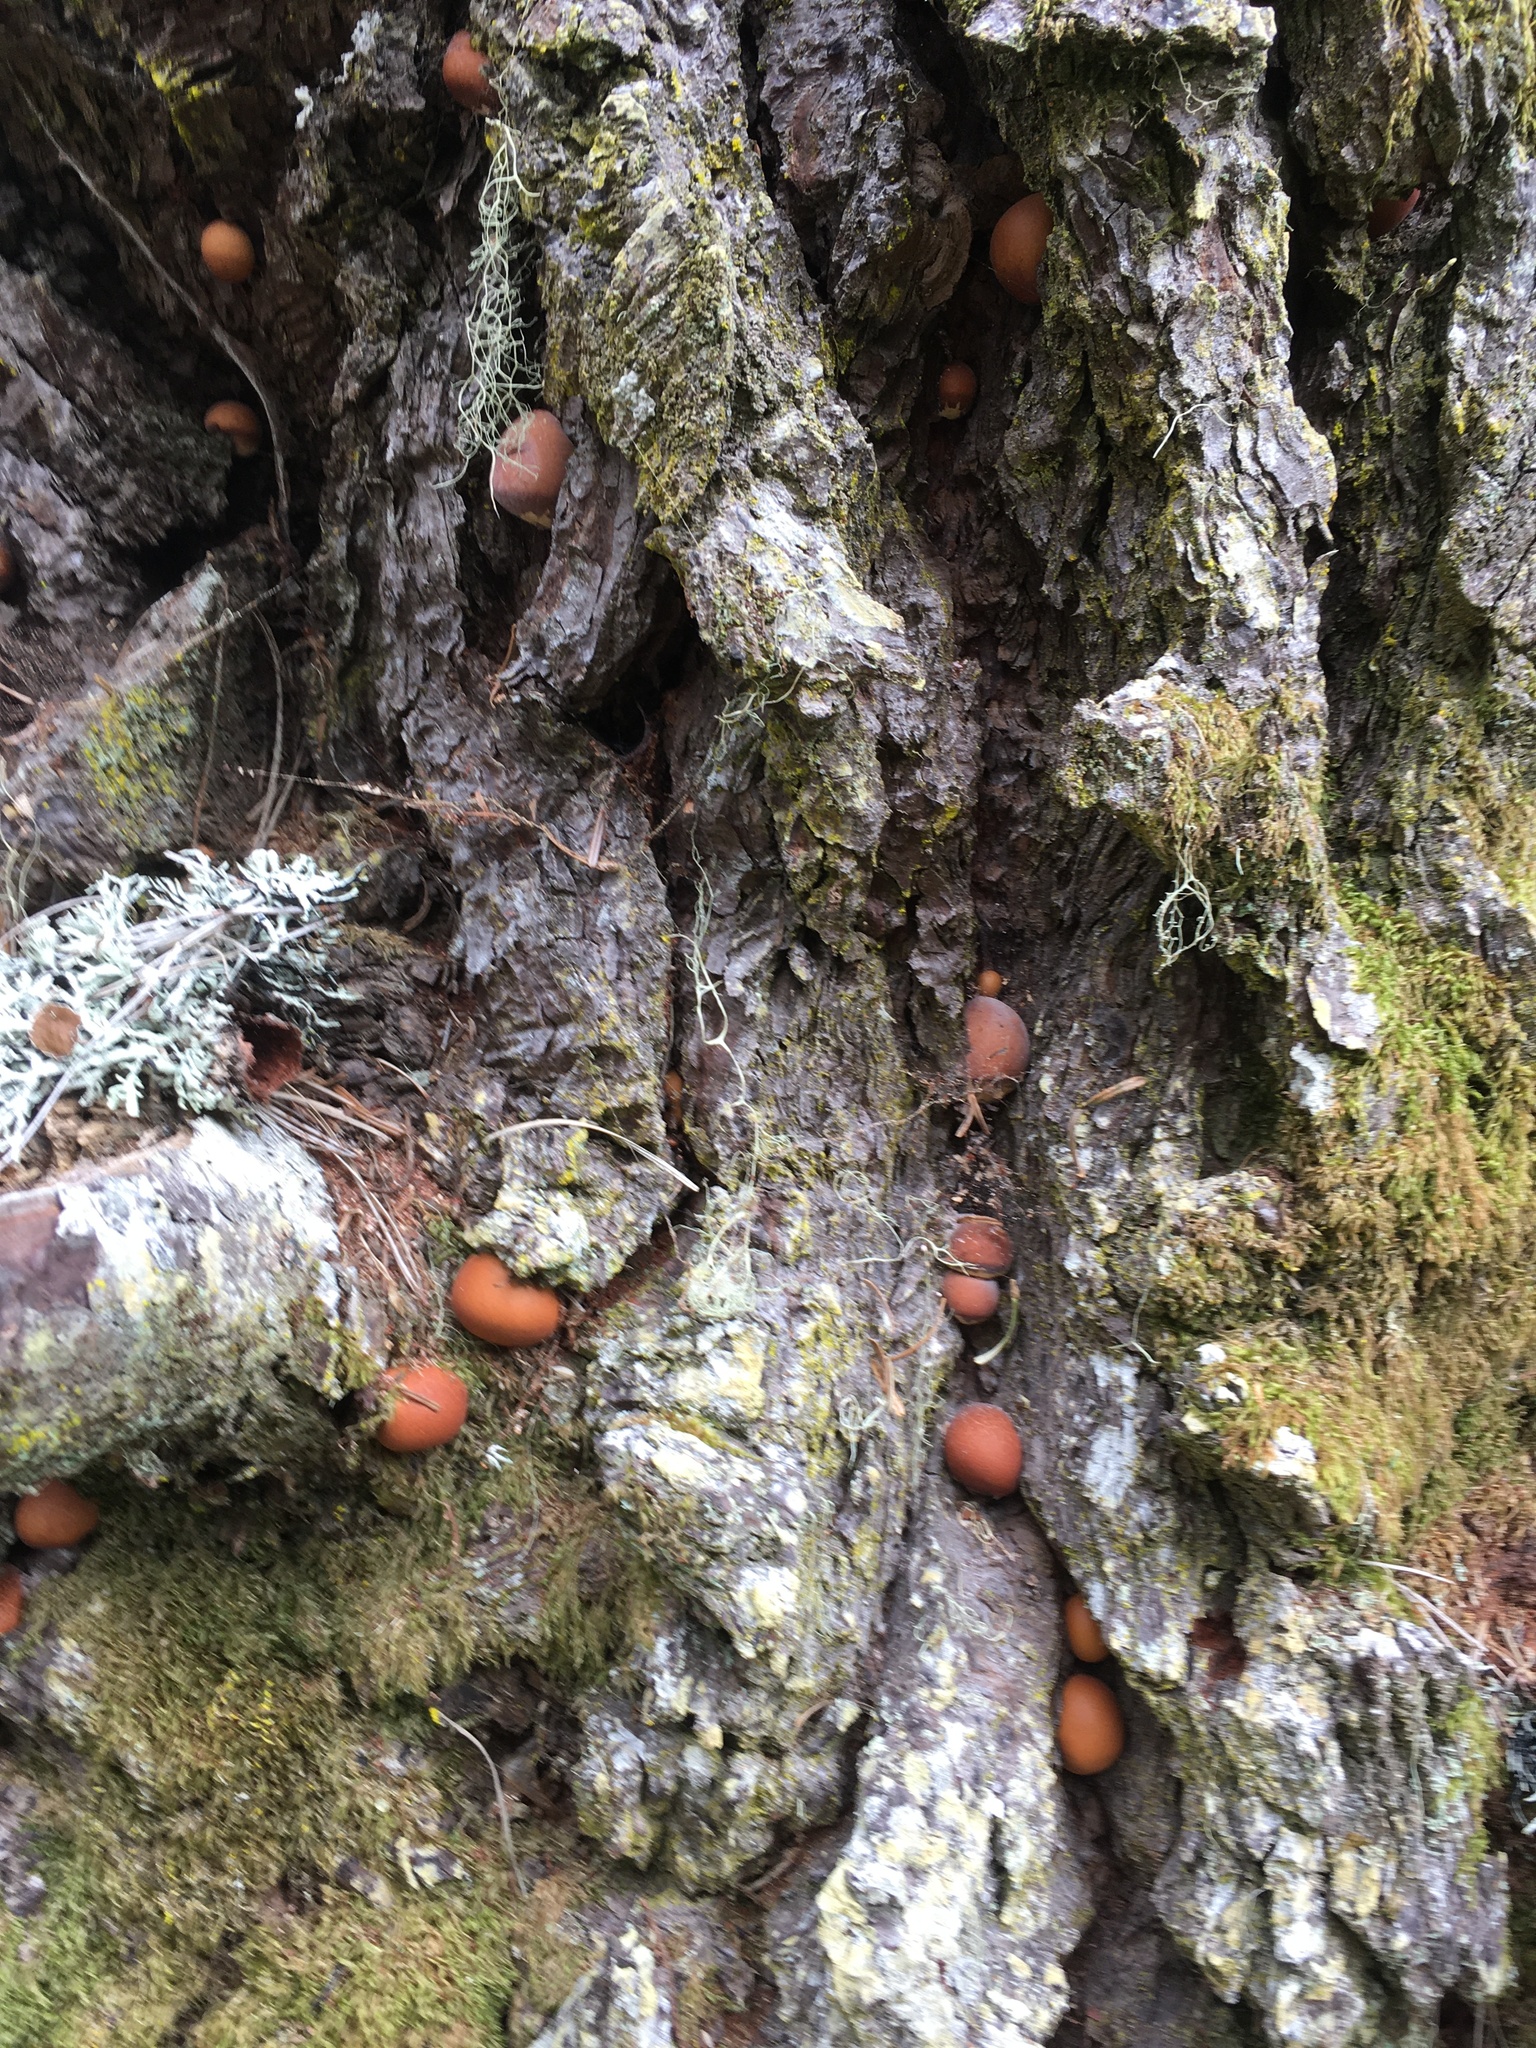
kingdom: Fungi
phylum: Basidiomycota
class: Agaricomycetes
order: Polyporales
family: Polyporaceae
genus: Cryptoporus
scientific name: Cryptoporus volvatus
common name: Veiled polypore
